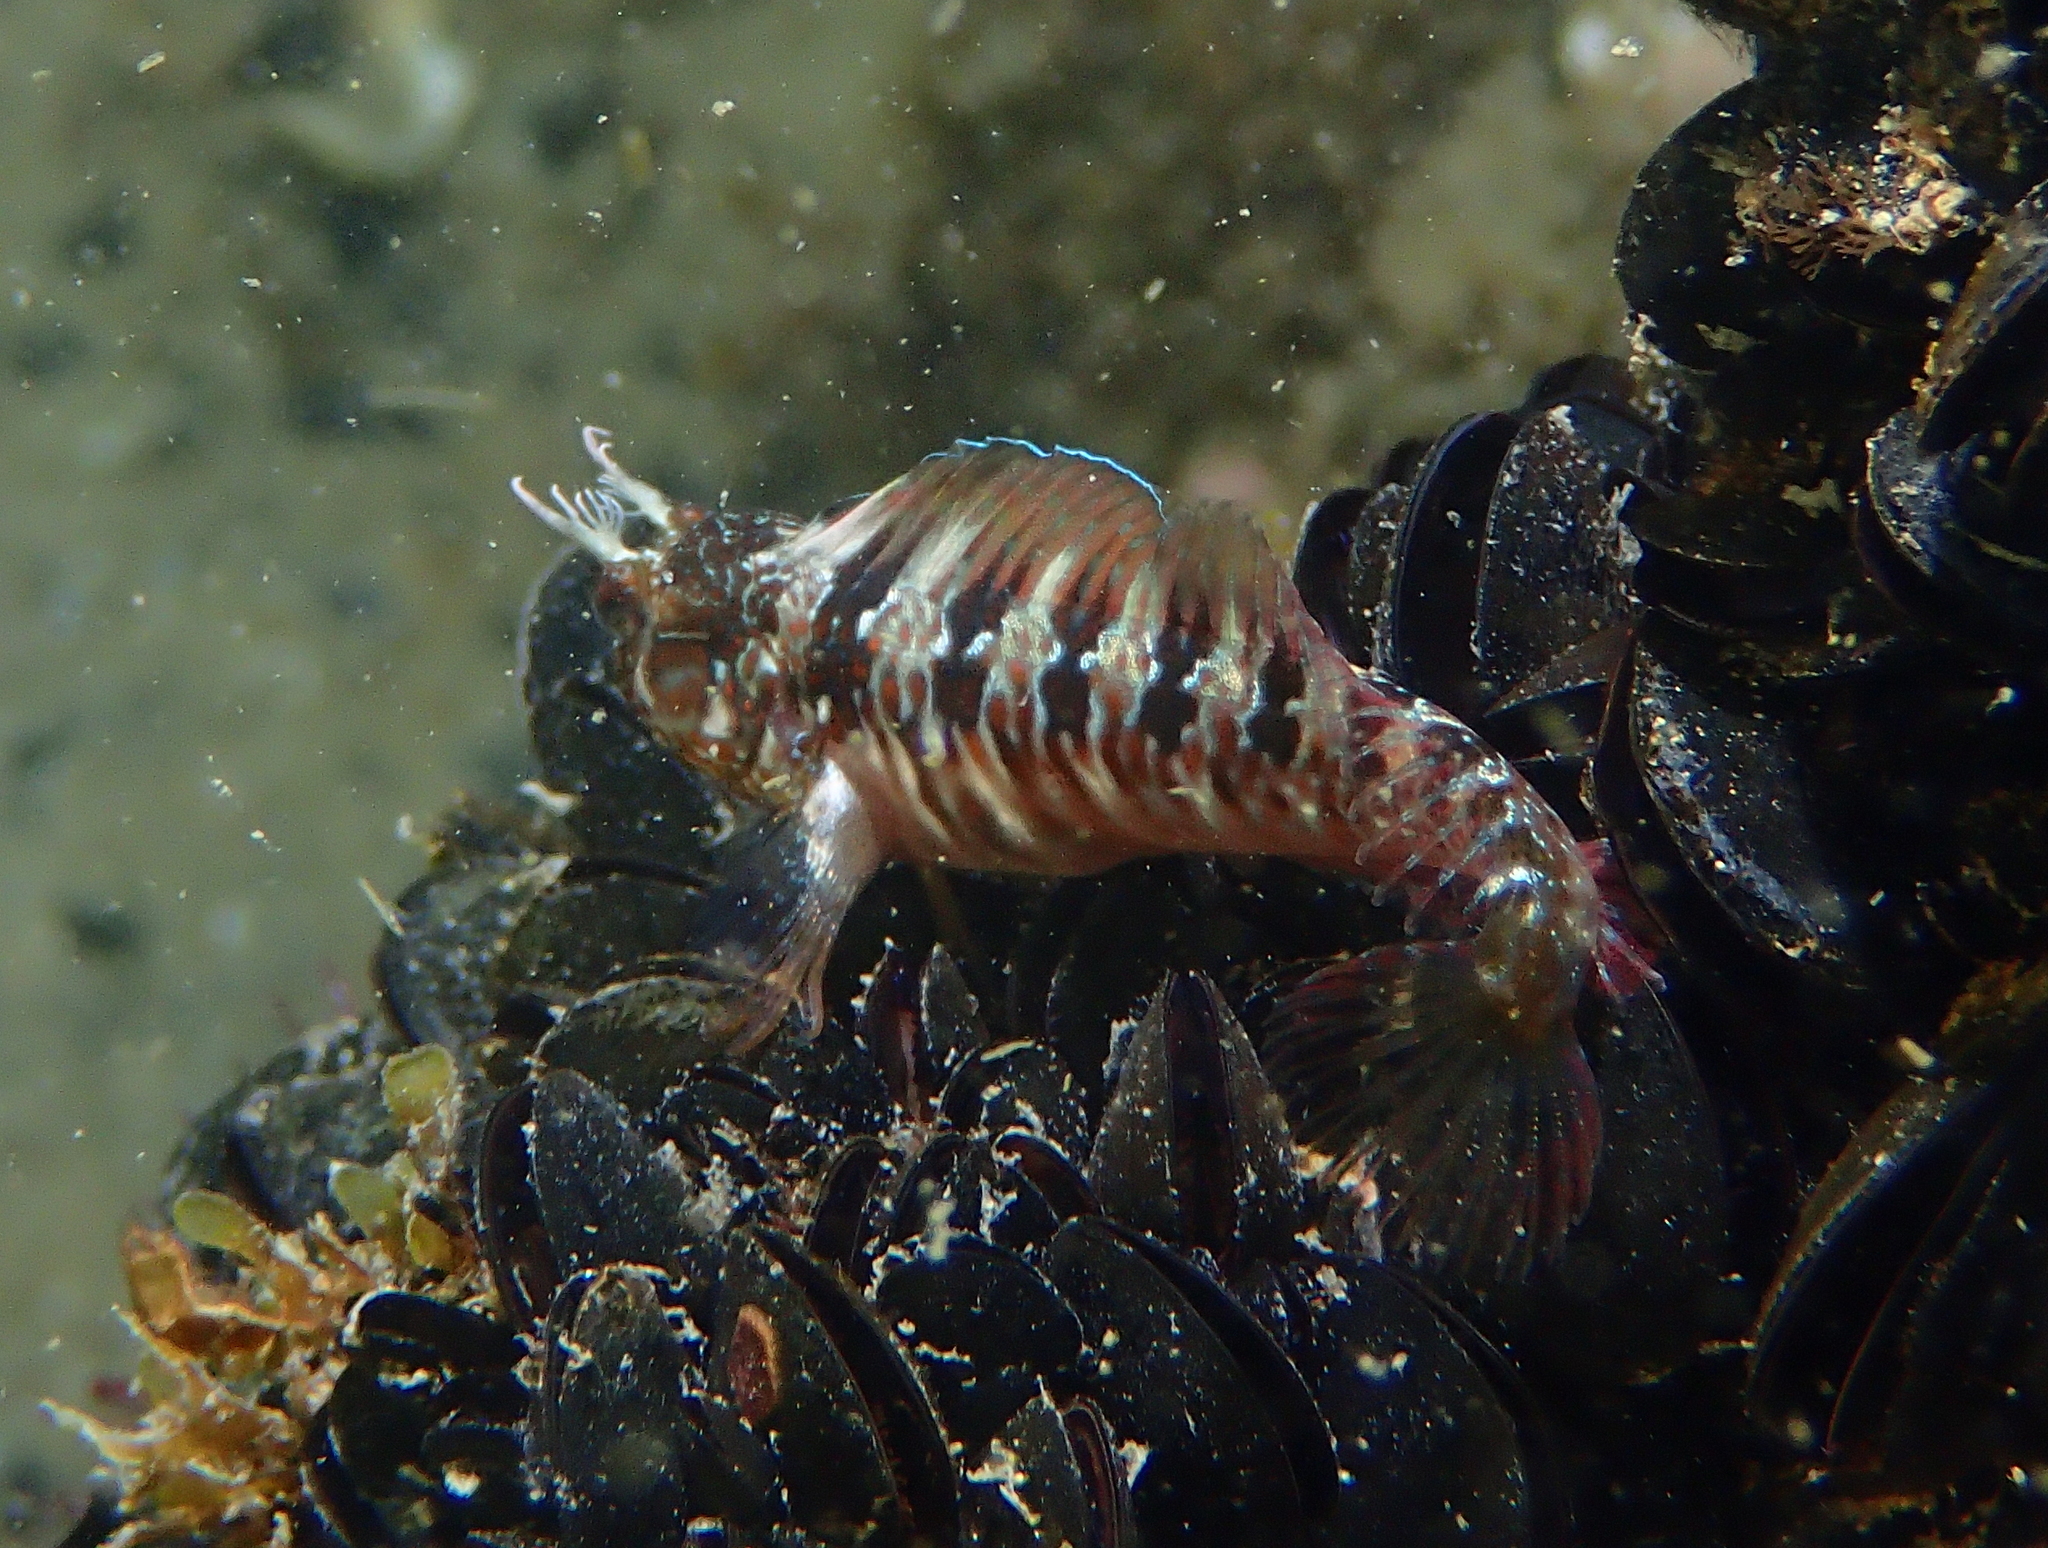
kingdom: Animalia
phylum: Chordata
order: Perciformes
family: Blenniidae
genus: Parablennius
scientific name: Parablennius incognitus
